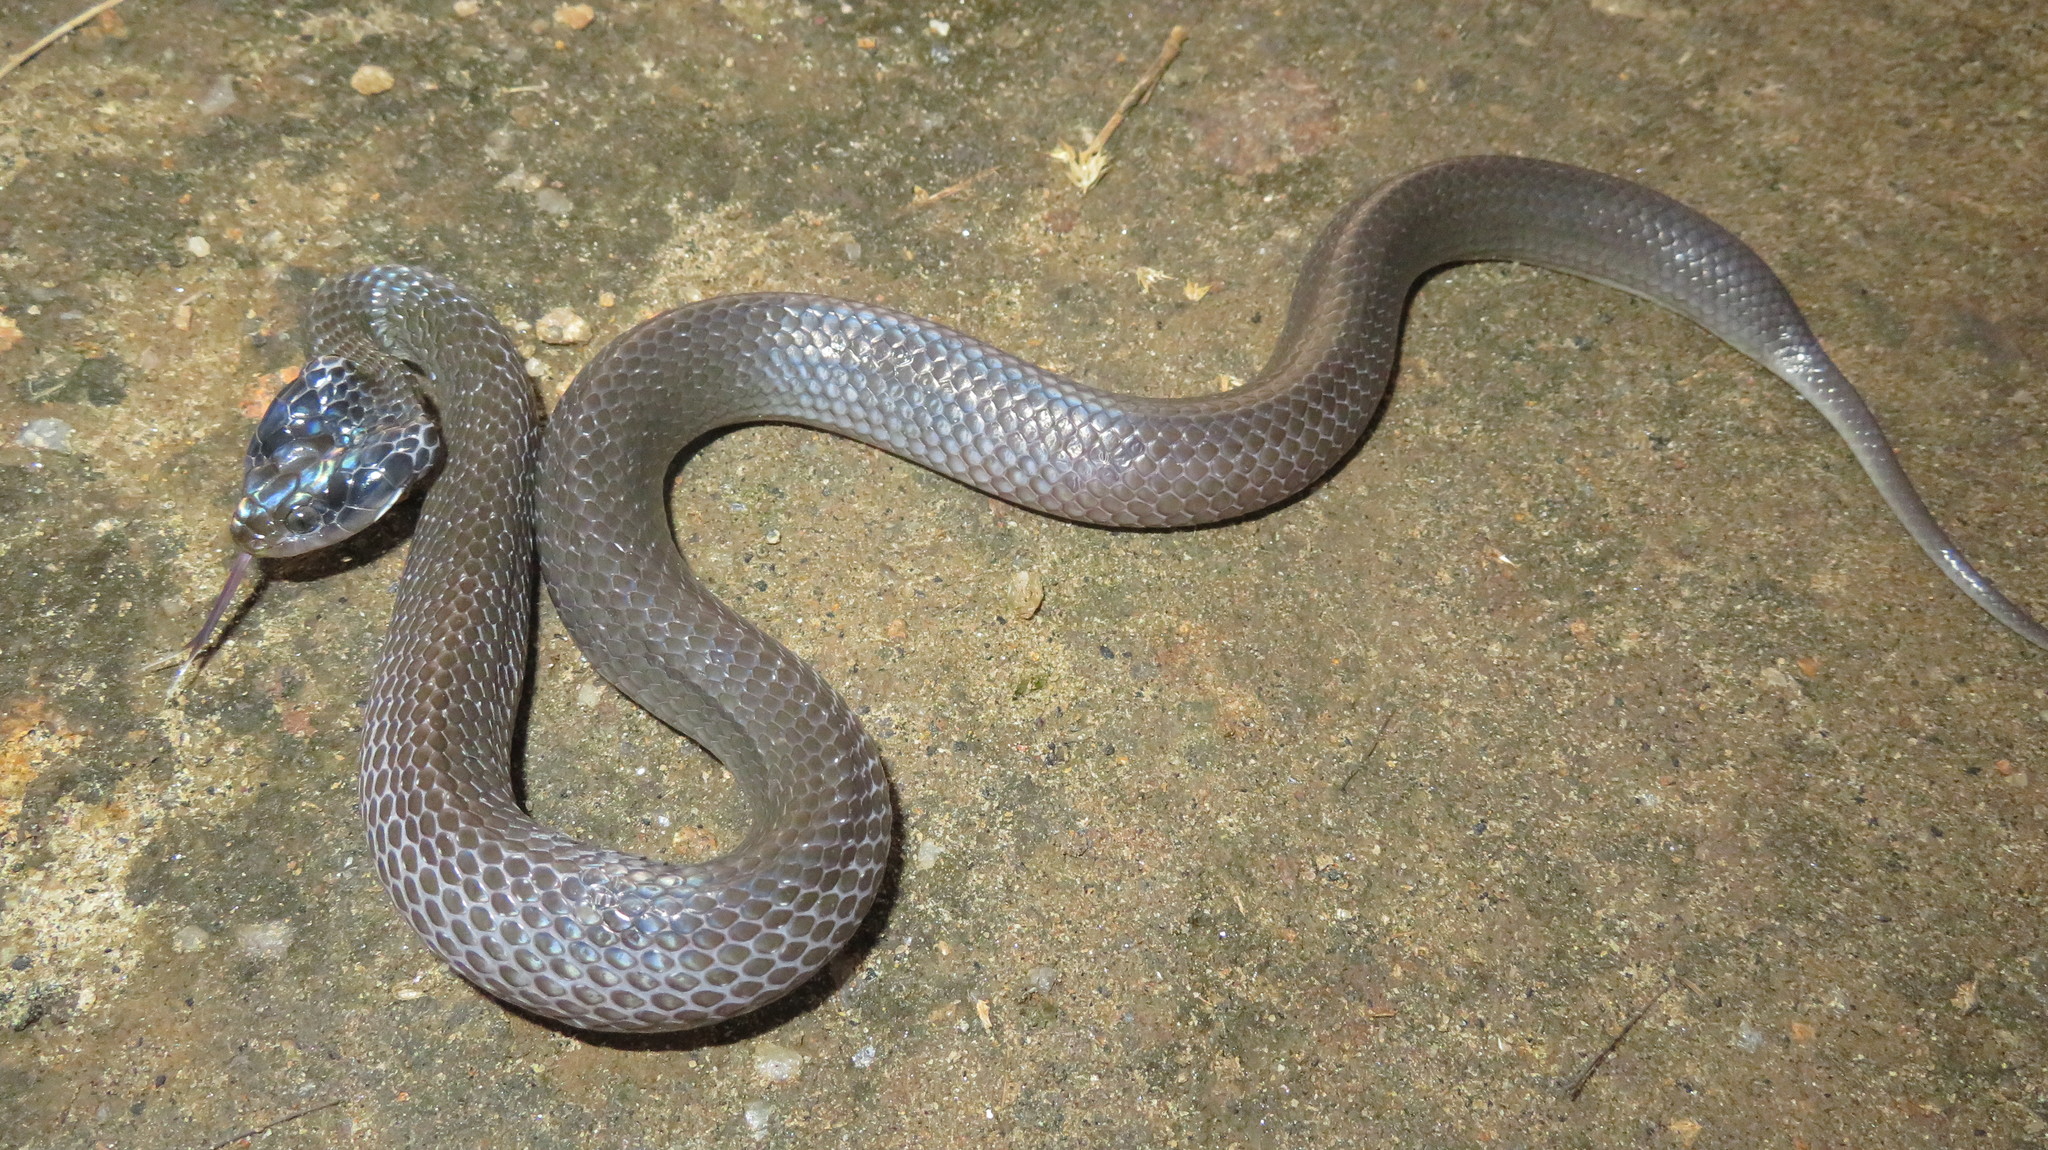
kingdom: Animalia
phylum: Chordata
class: Squamata
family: Colubridae
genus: Crotaphopeltis
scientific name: Crotaphopeltis hotamboeia
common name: Red-lipped snake
